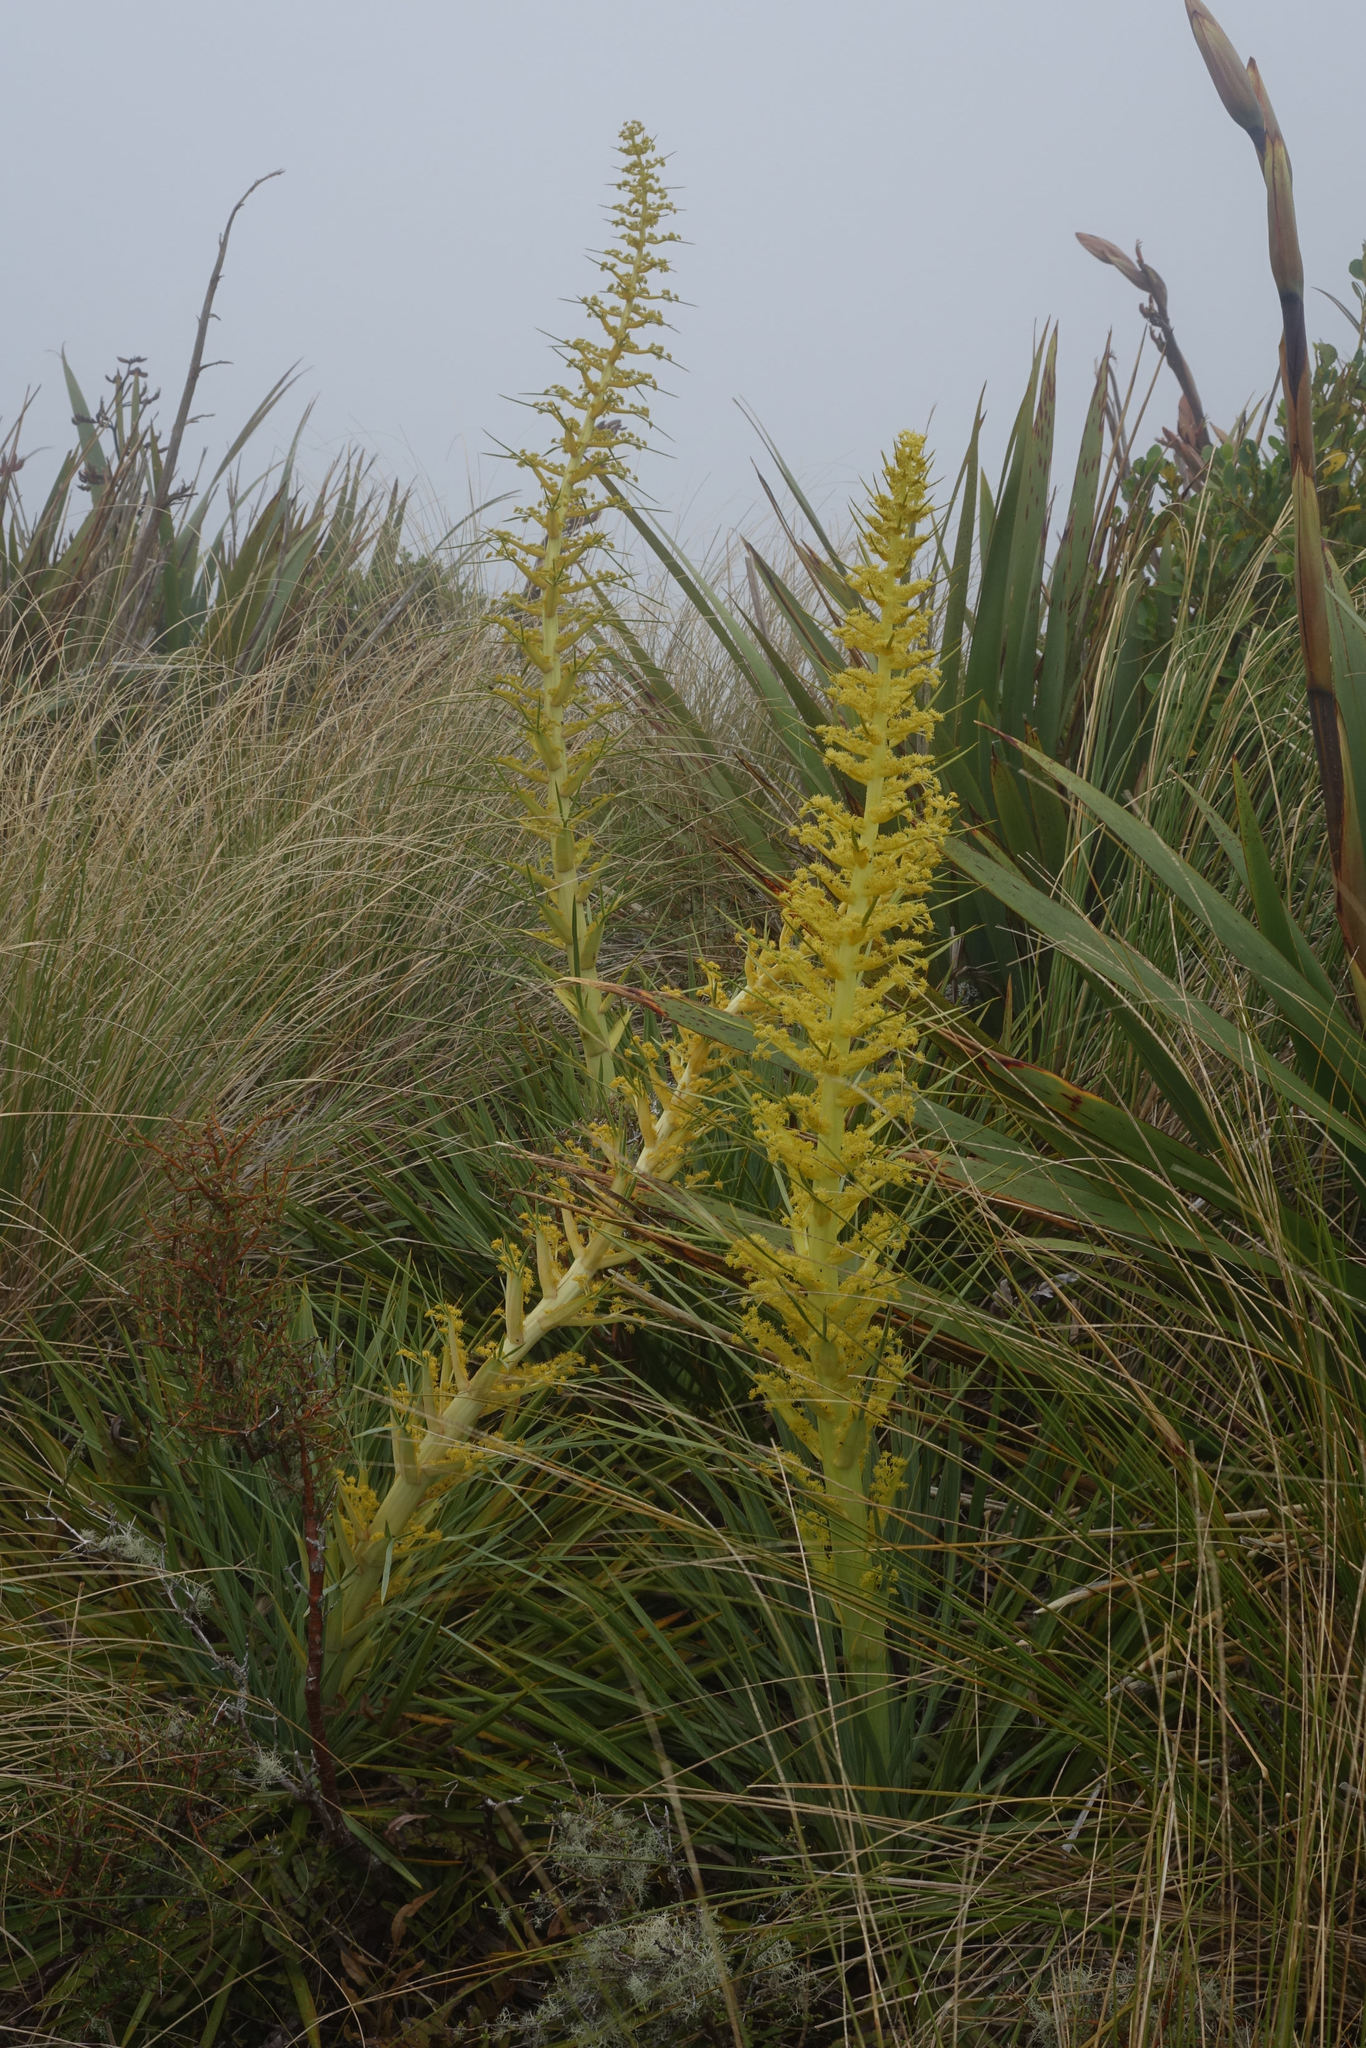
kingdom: Plantae
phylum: Tracheophyta
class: Magnoliopsida
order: Apiales
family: Apiaceae
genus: Aciphylla
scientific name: Aciphylla scott-thomsonii
